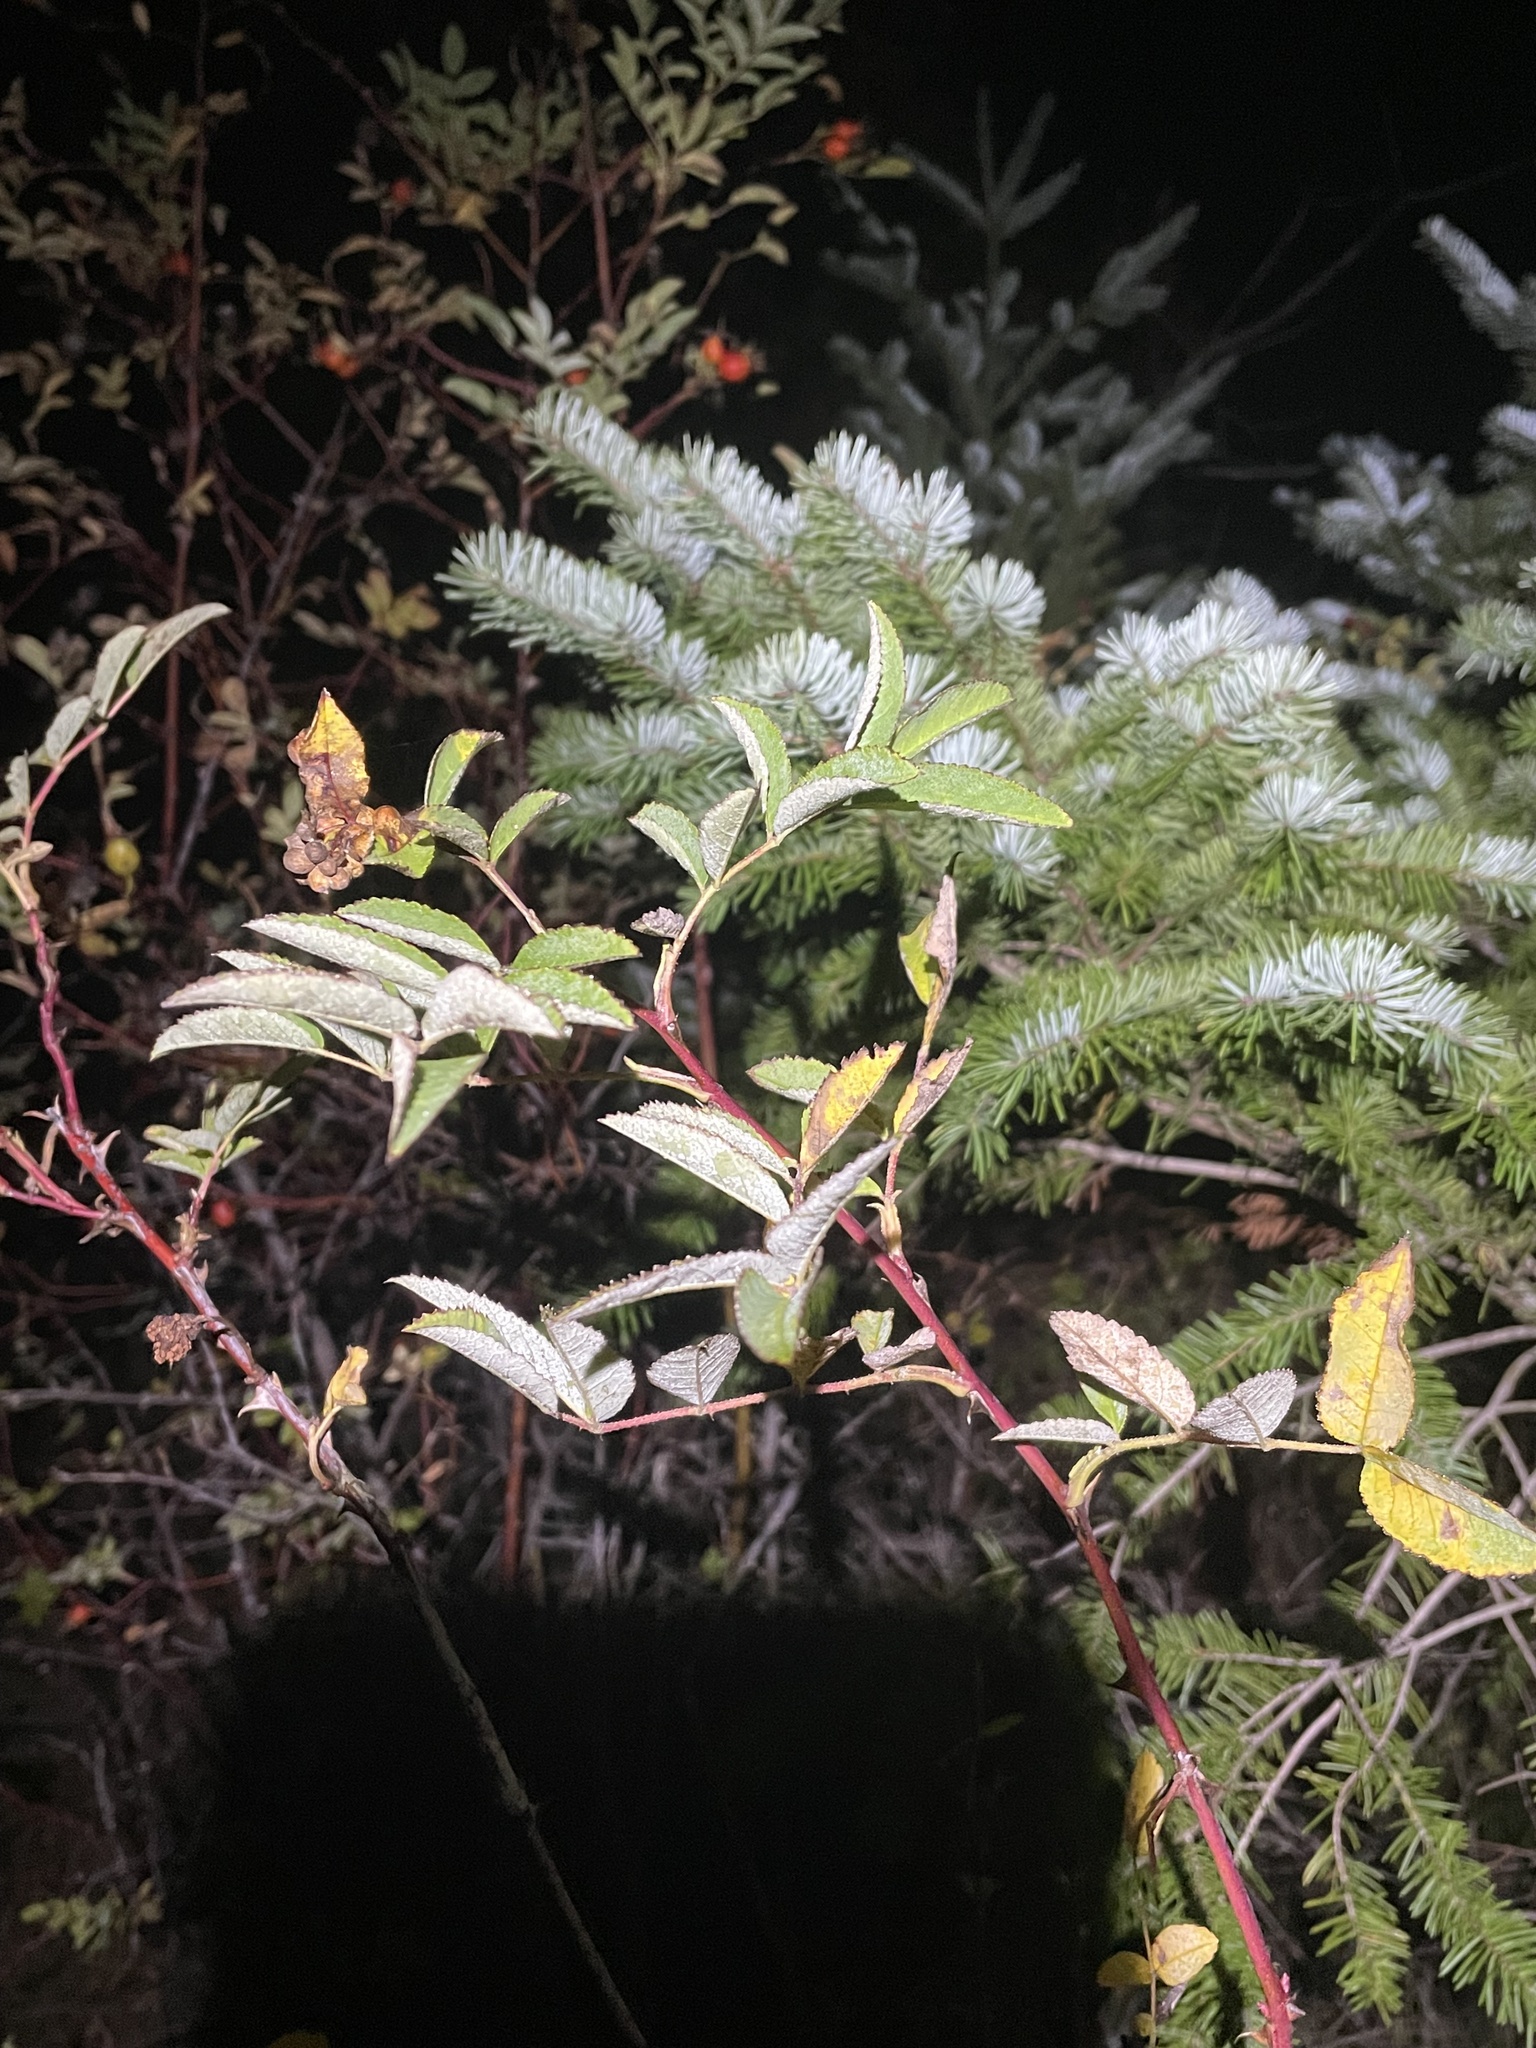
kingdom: Animalia
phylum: Arthropoda
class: Insecta
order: Hymenoptera
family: Cynipidae
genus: Diplolepis
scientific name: Diplolepis gracilis
